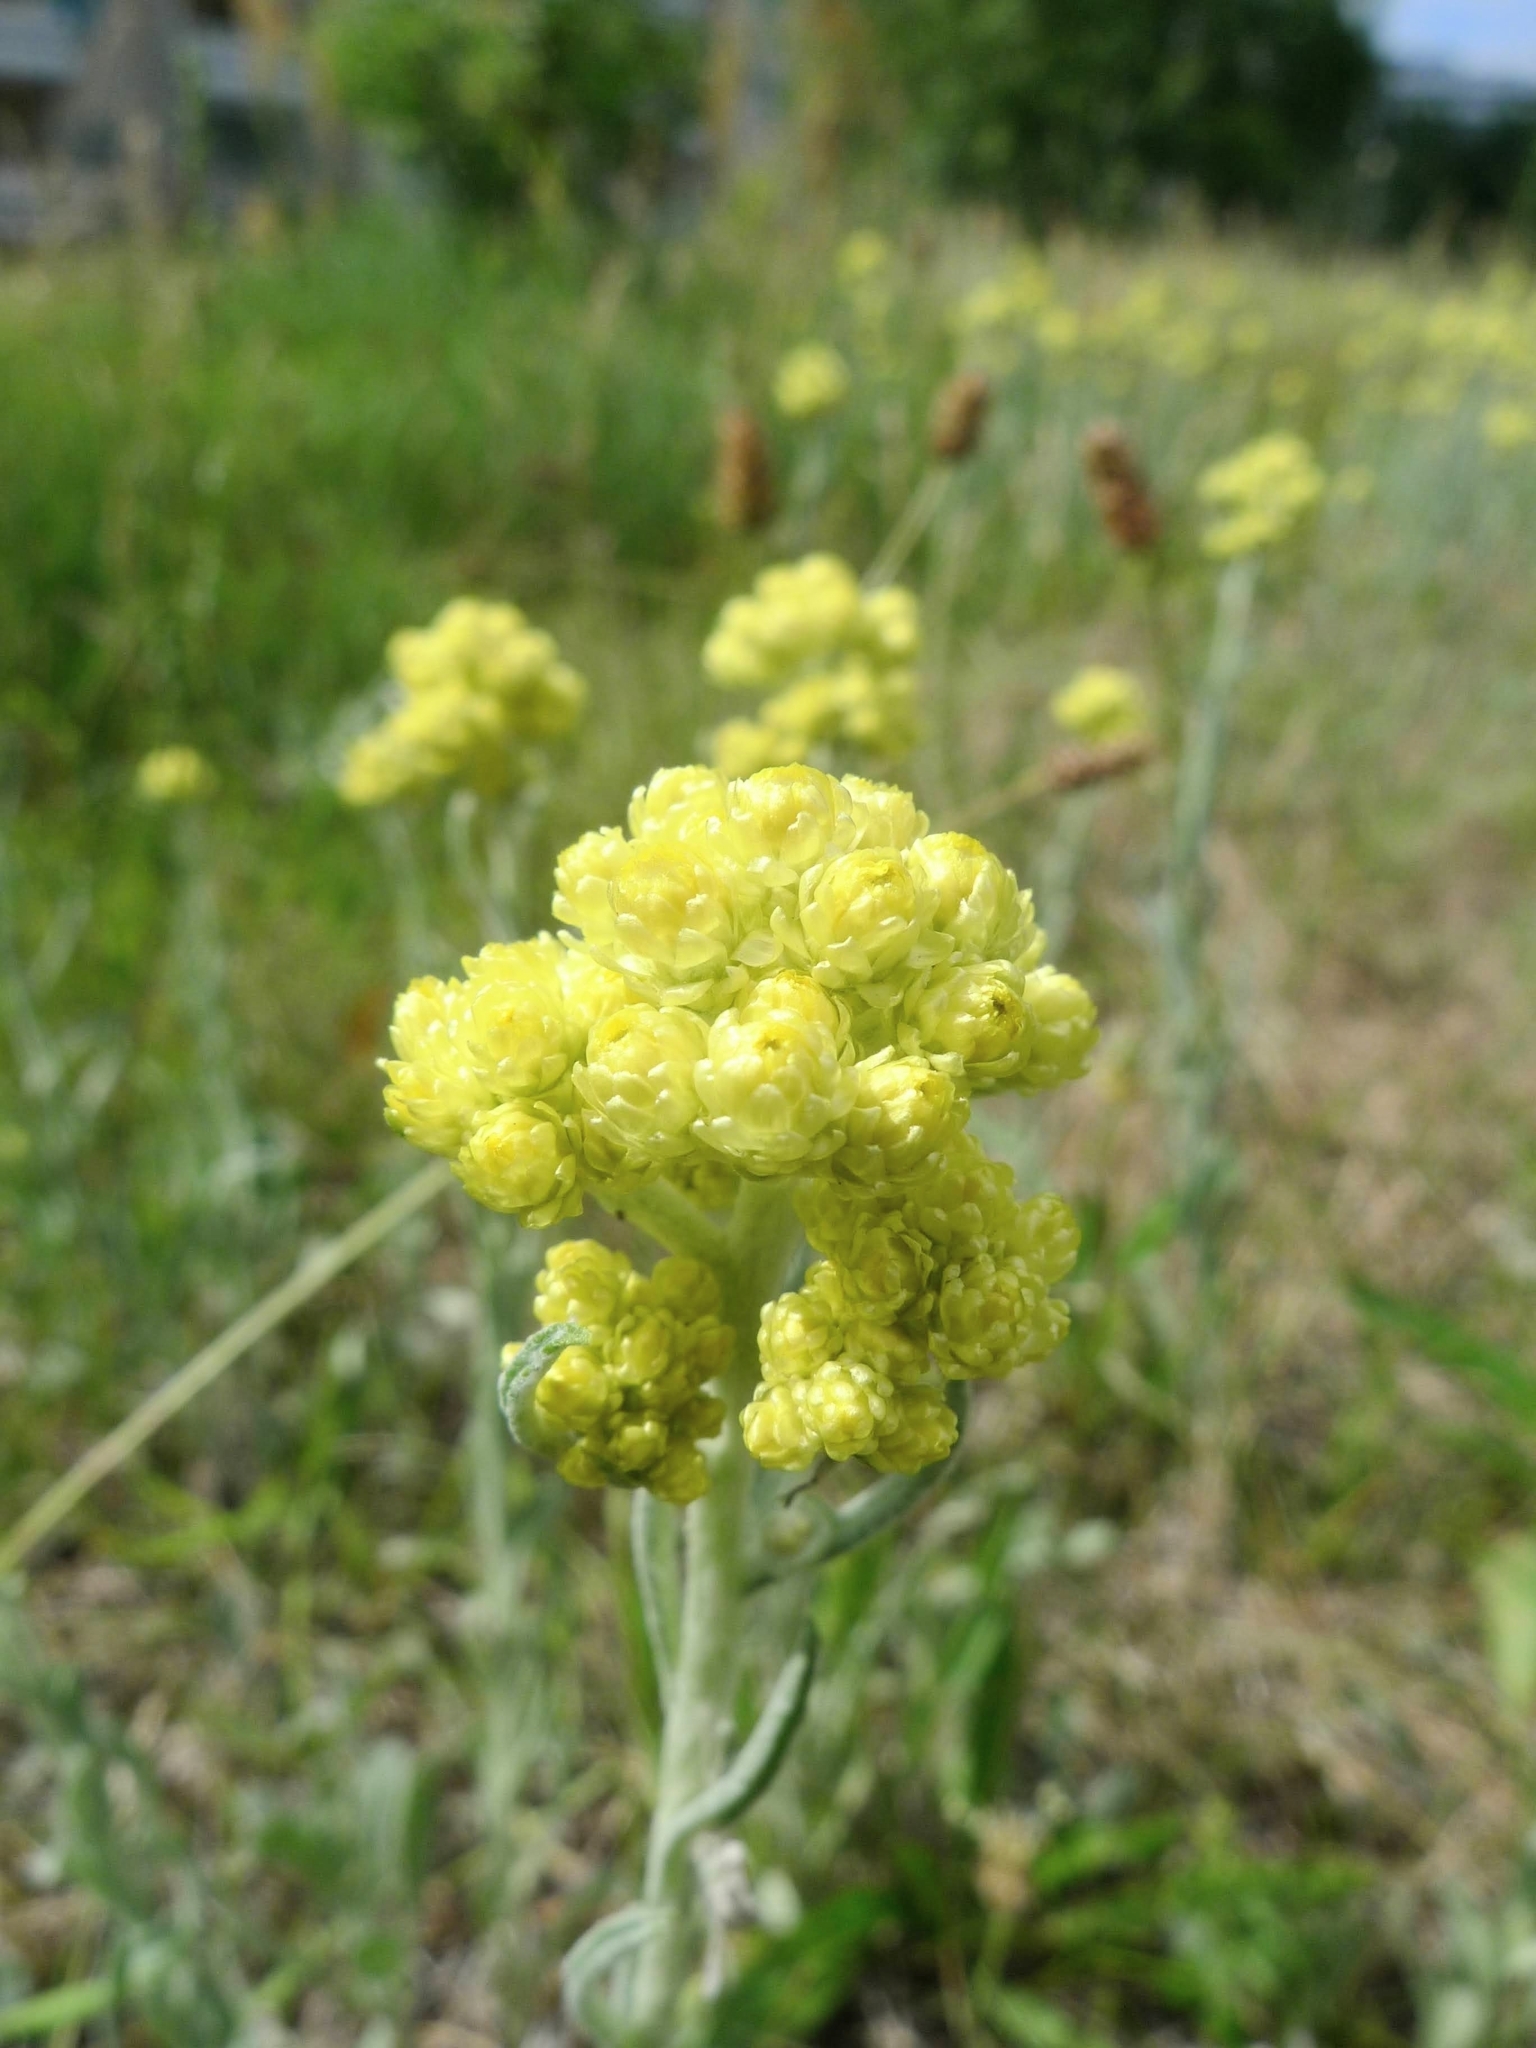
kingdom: Plantae
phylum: Tracheophyta
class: Magnoliopsida
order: Asterales
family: Asteraceae
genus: Helichrysum
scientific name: Helichrysum arenarium
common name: Strawflower
